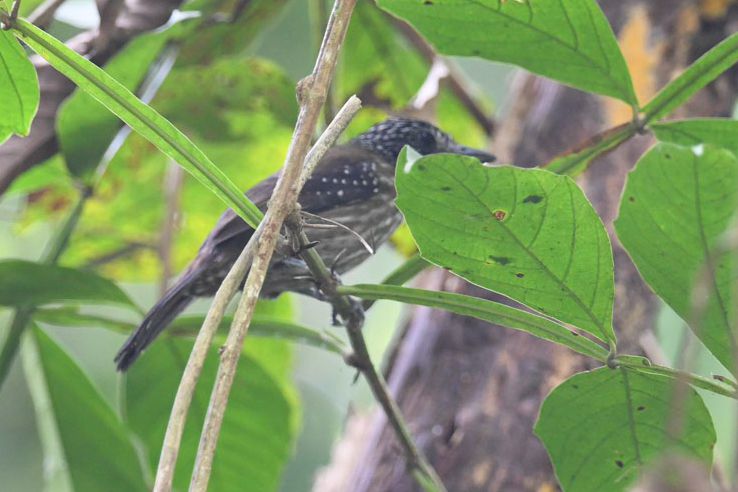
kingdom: Animalia
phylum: Chordata
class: Aves
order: Passeriformes
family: Thamnophilidae
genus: Thamnophilus
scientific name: Thamnophilus bridgesi
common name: Black-hooded antshrike
